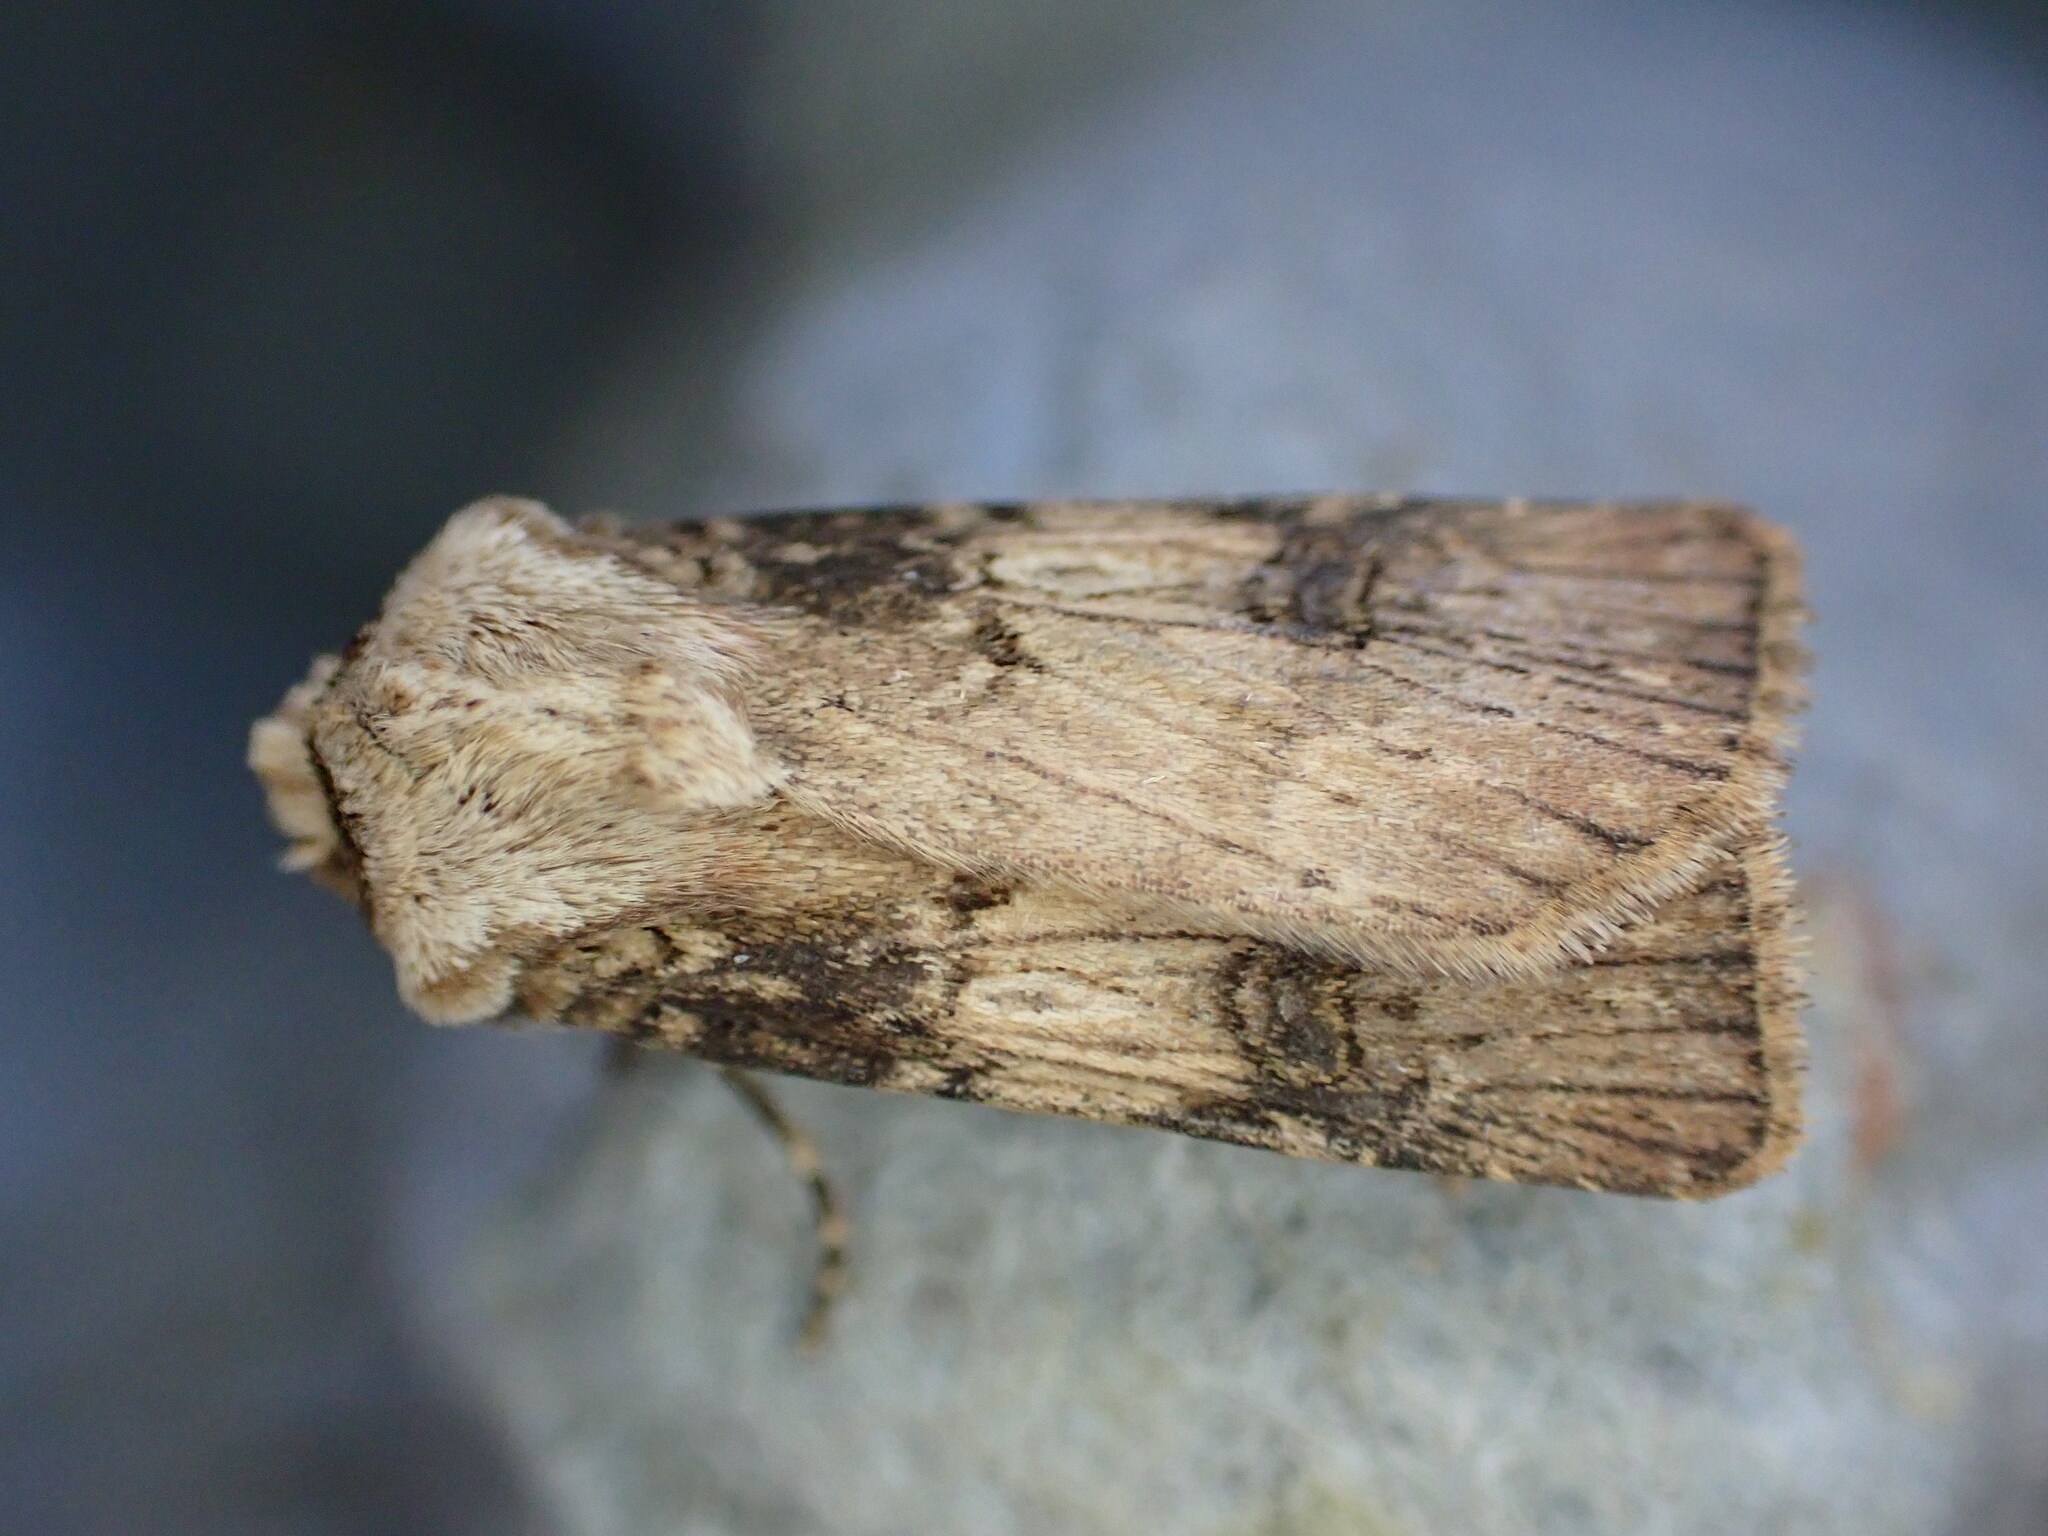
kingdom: Animalia
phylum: Arthropoda
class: Insecta
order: Lepidoptera
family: Noctuidae
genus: Agrotis
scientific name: Agrotis puta
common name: Shuttle-shaped dart
